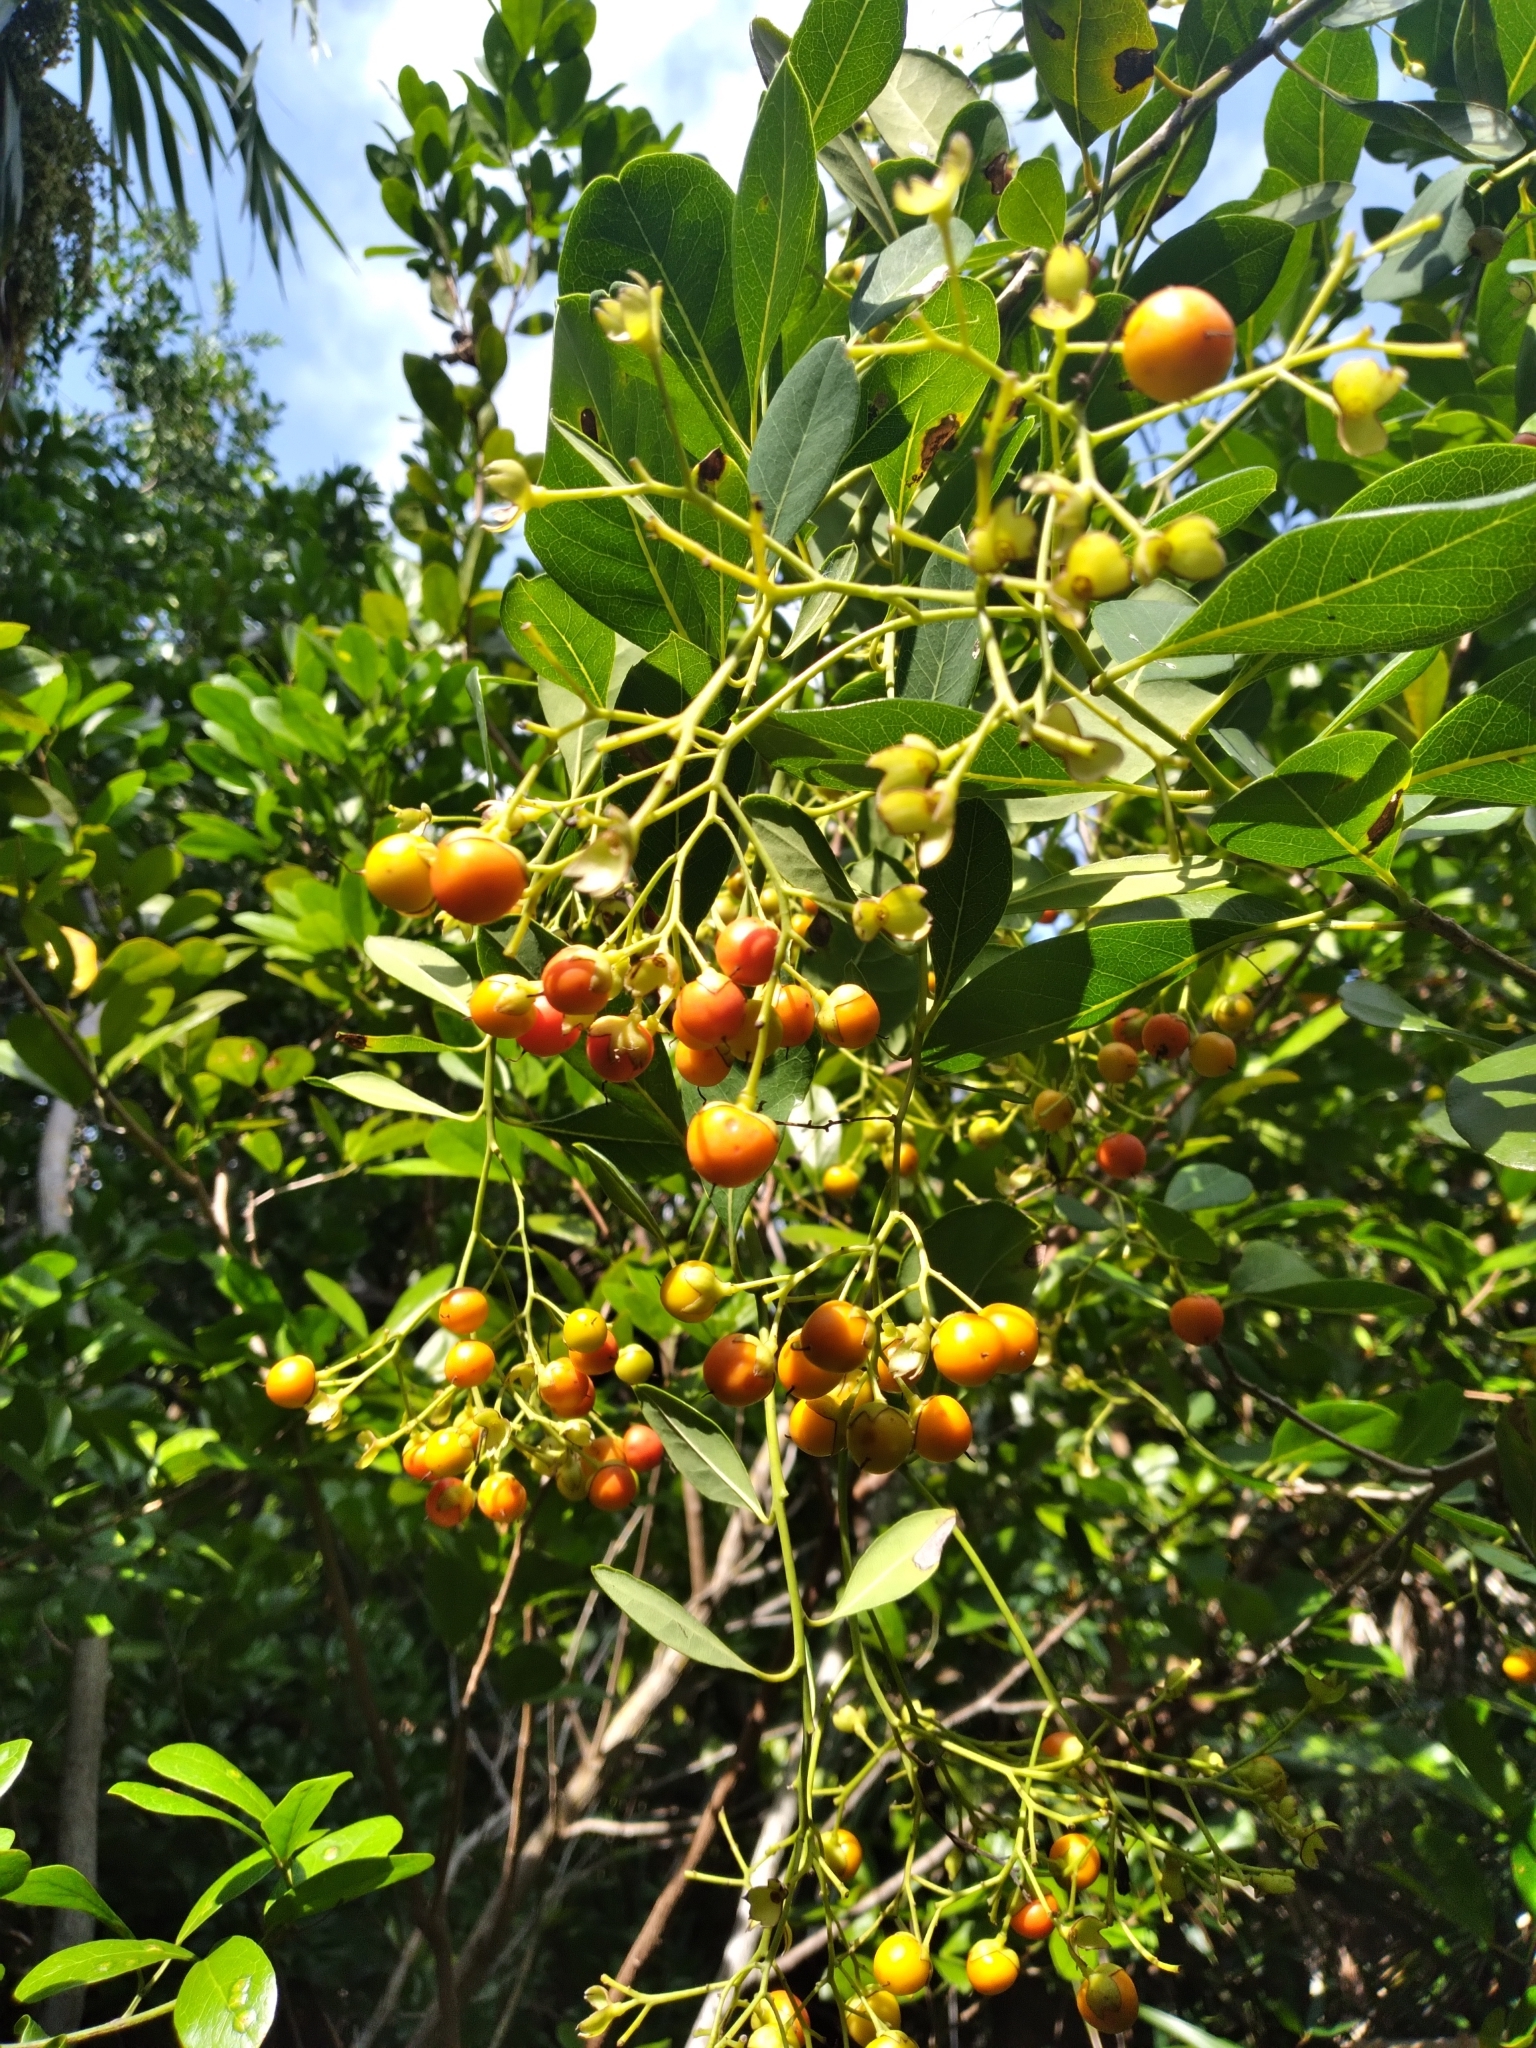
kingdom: Plantae
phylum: Tracheophyta
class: Magnoliopsida
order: Boraginales
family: Ehretiaceae
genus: Bourreria
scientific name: Bourreria succulenta
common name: Cherry
